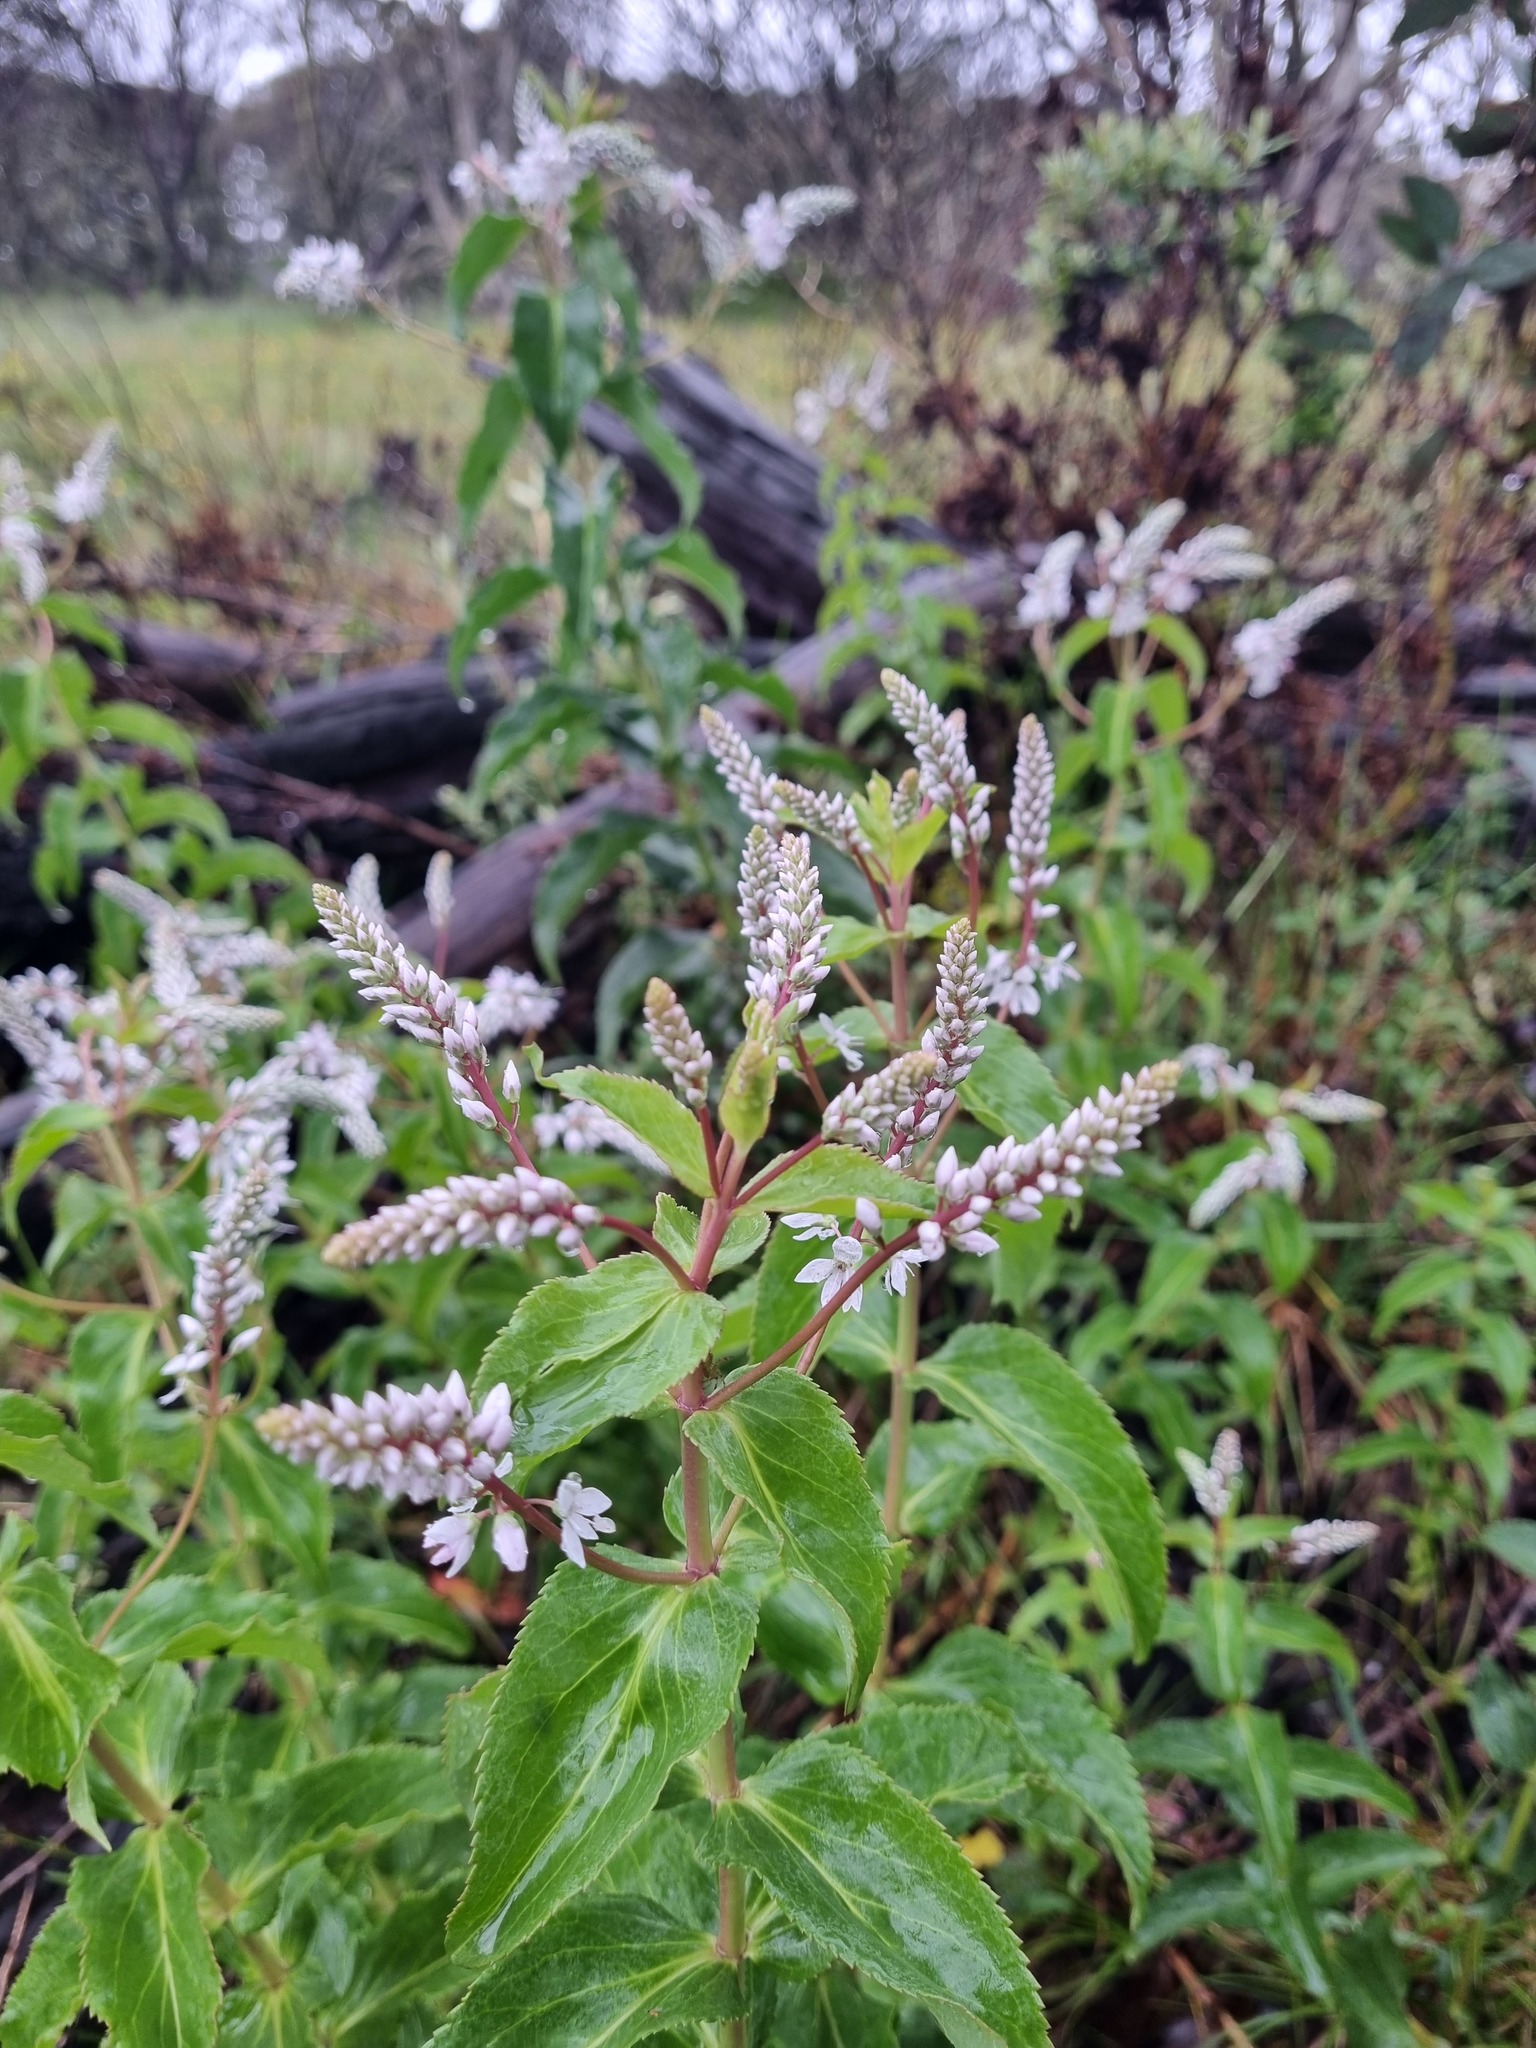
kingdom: Plantae
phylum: Tracheophyta
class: Magnoliopsida
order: Lamiales
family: Plantaginaceae
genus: Veronica
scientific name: Veronica derwentiana
